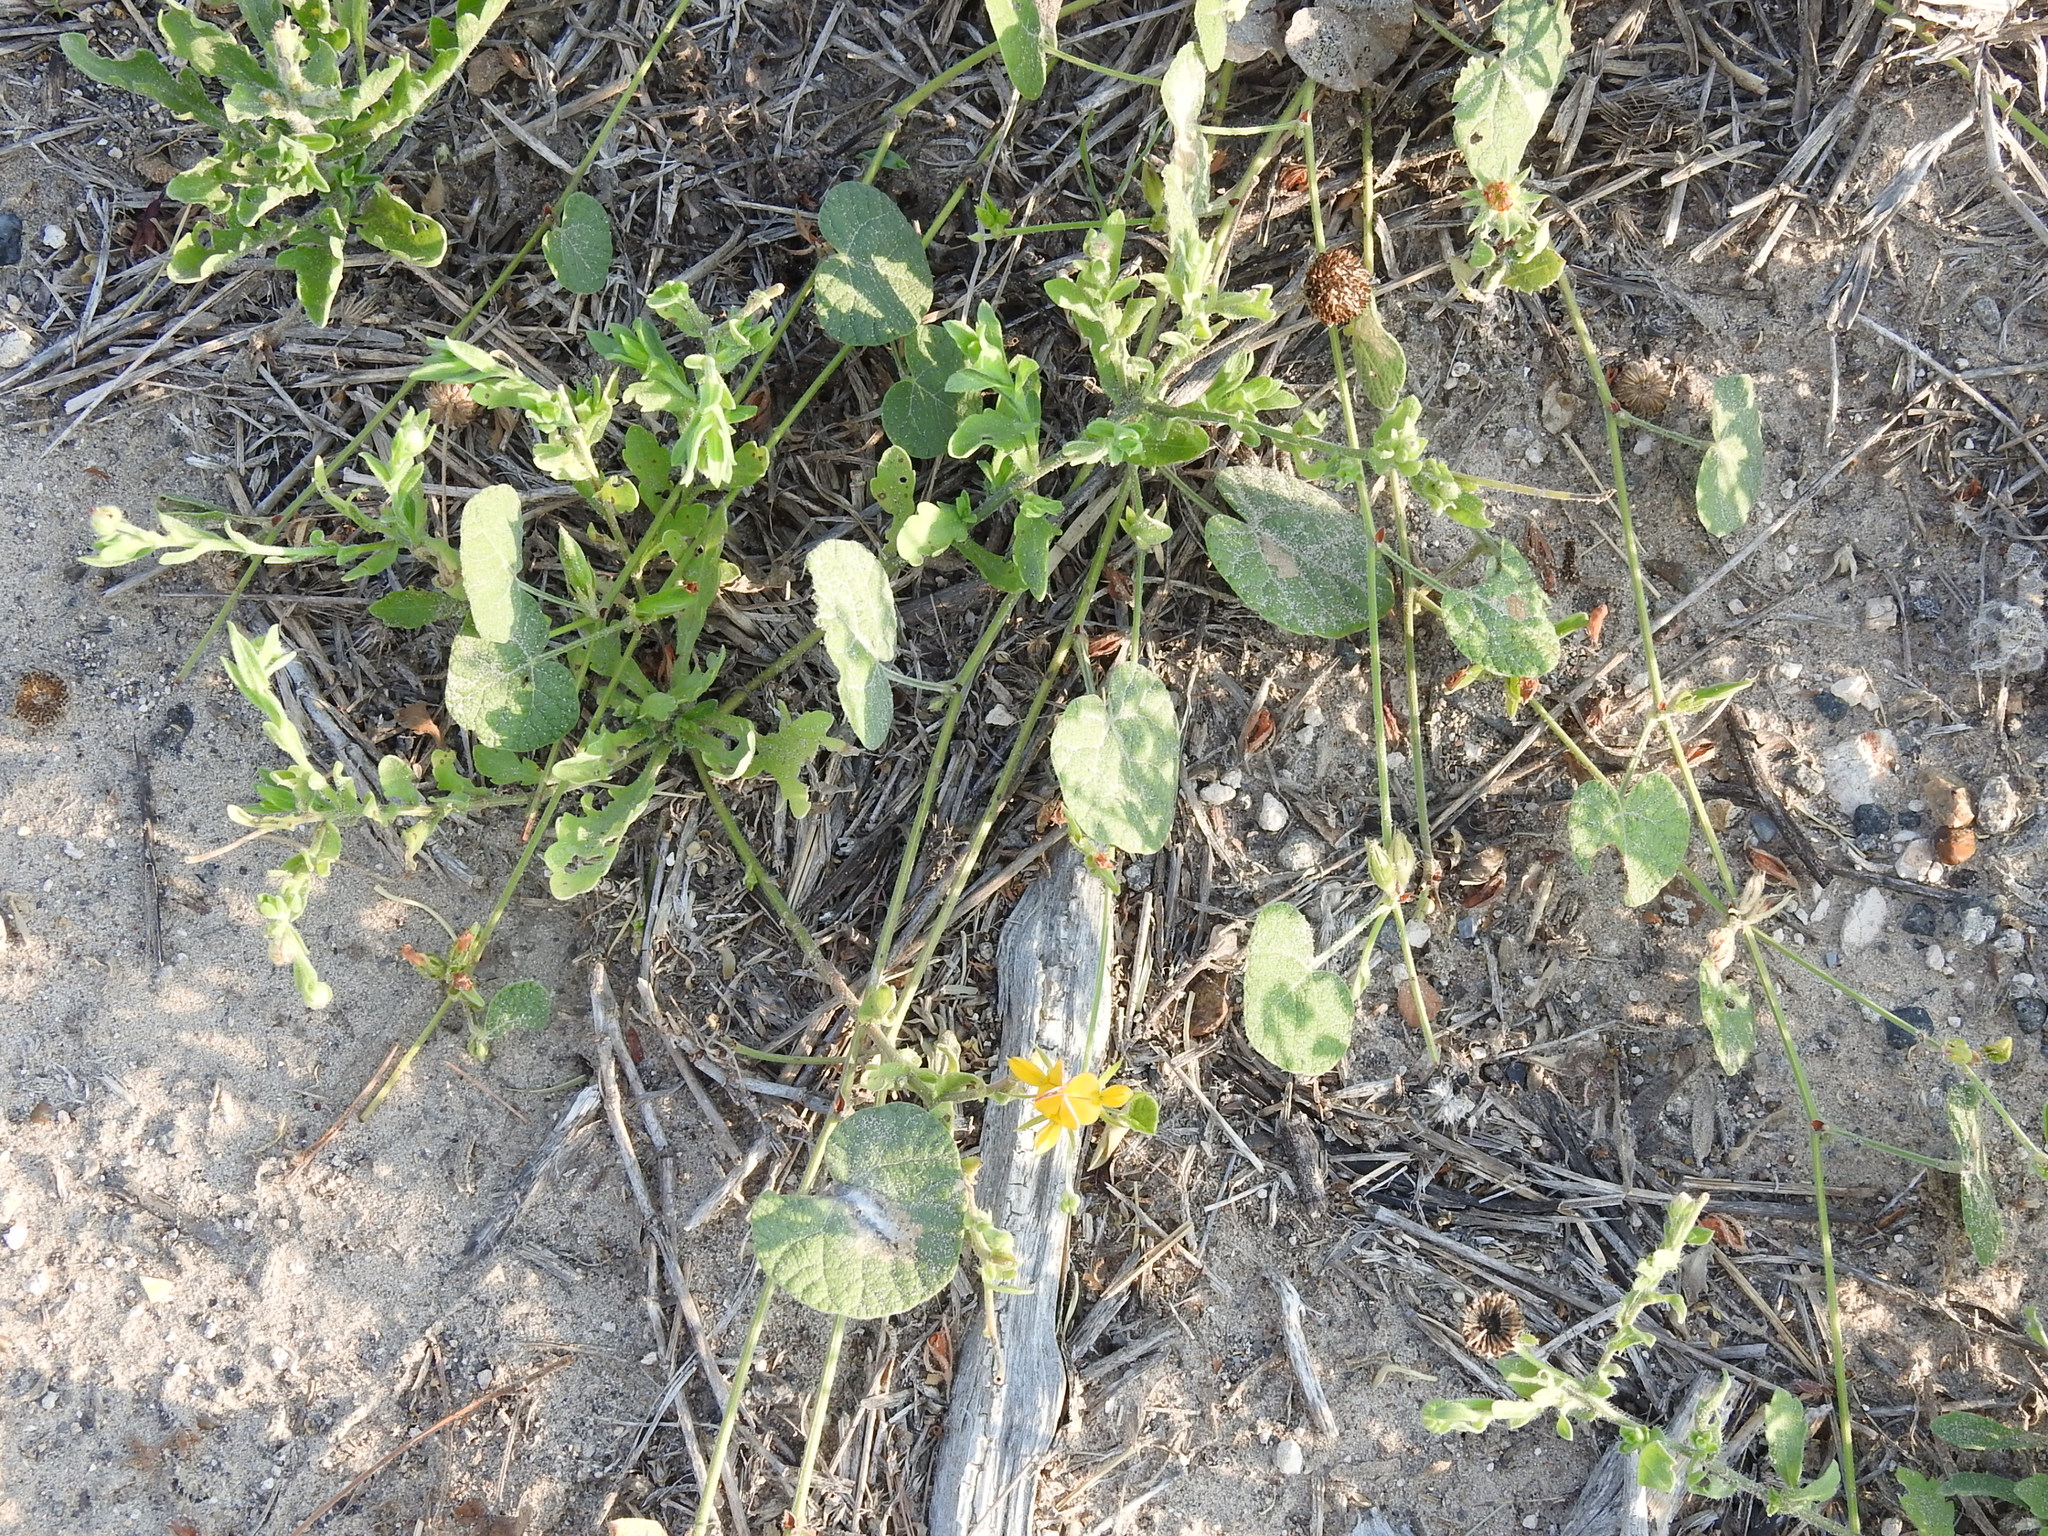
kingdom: Plantae
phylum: Tracheophyta
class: Magnoliopsida
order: Fabales
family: Fabaceae
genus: Rhynchosia
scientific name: Rhynchosia americana
